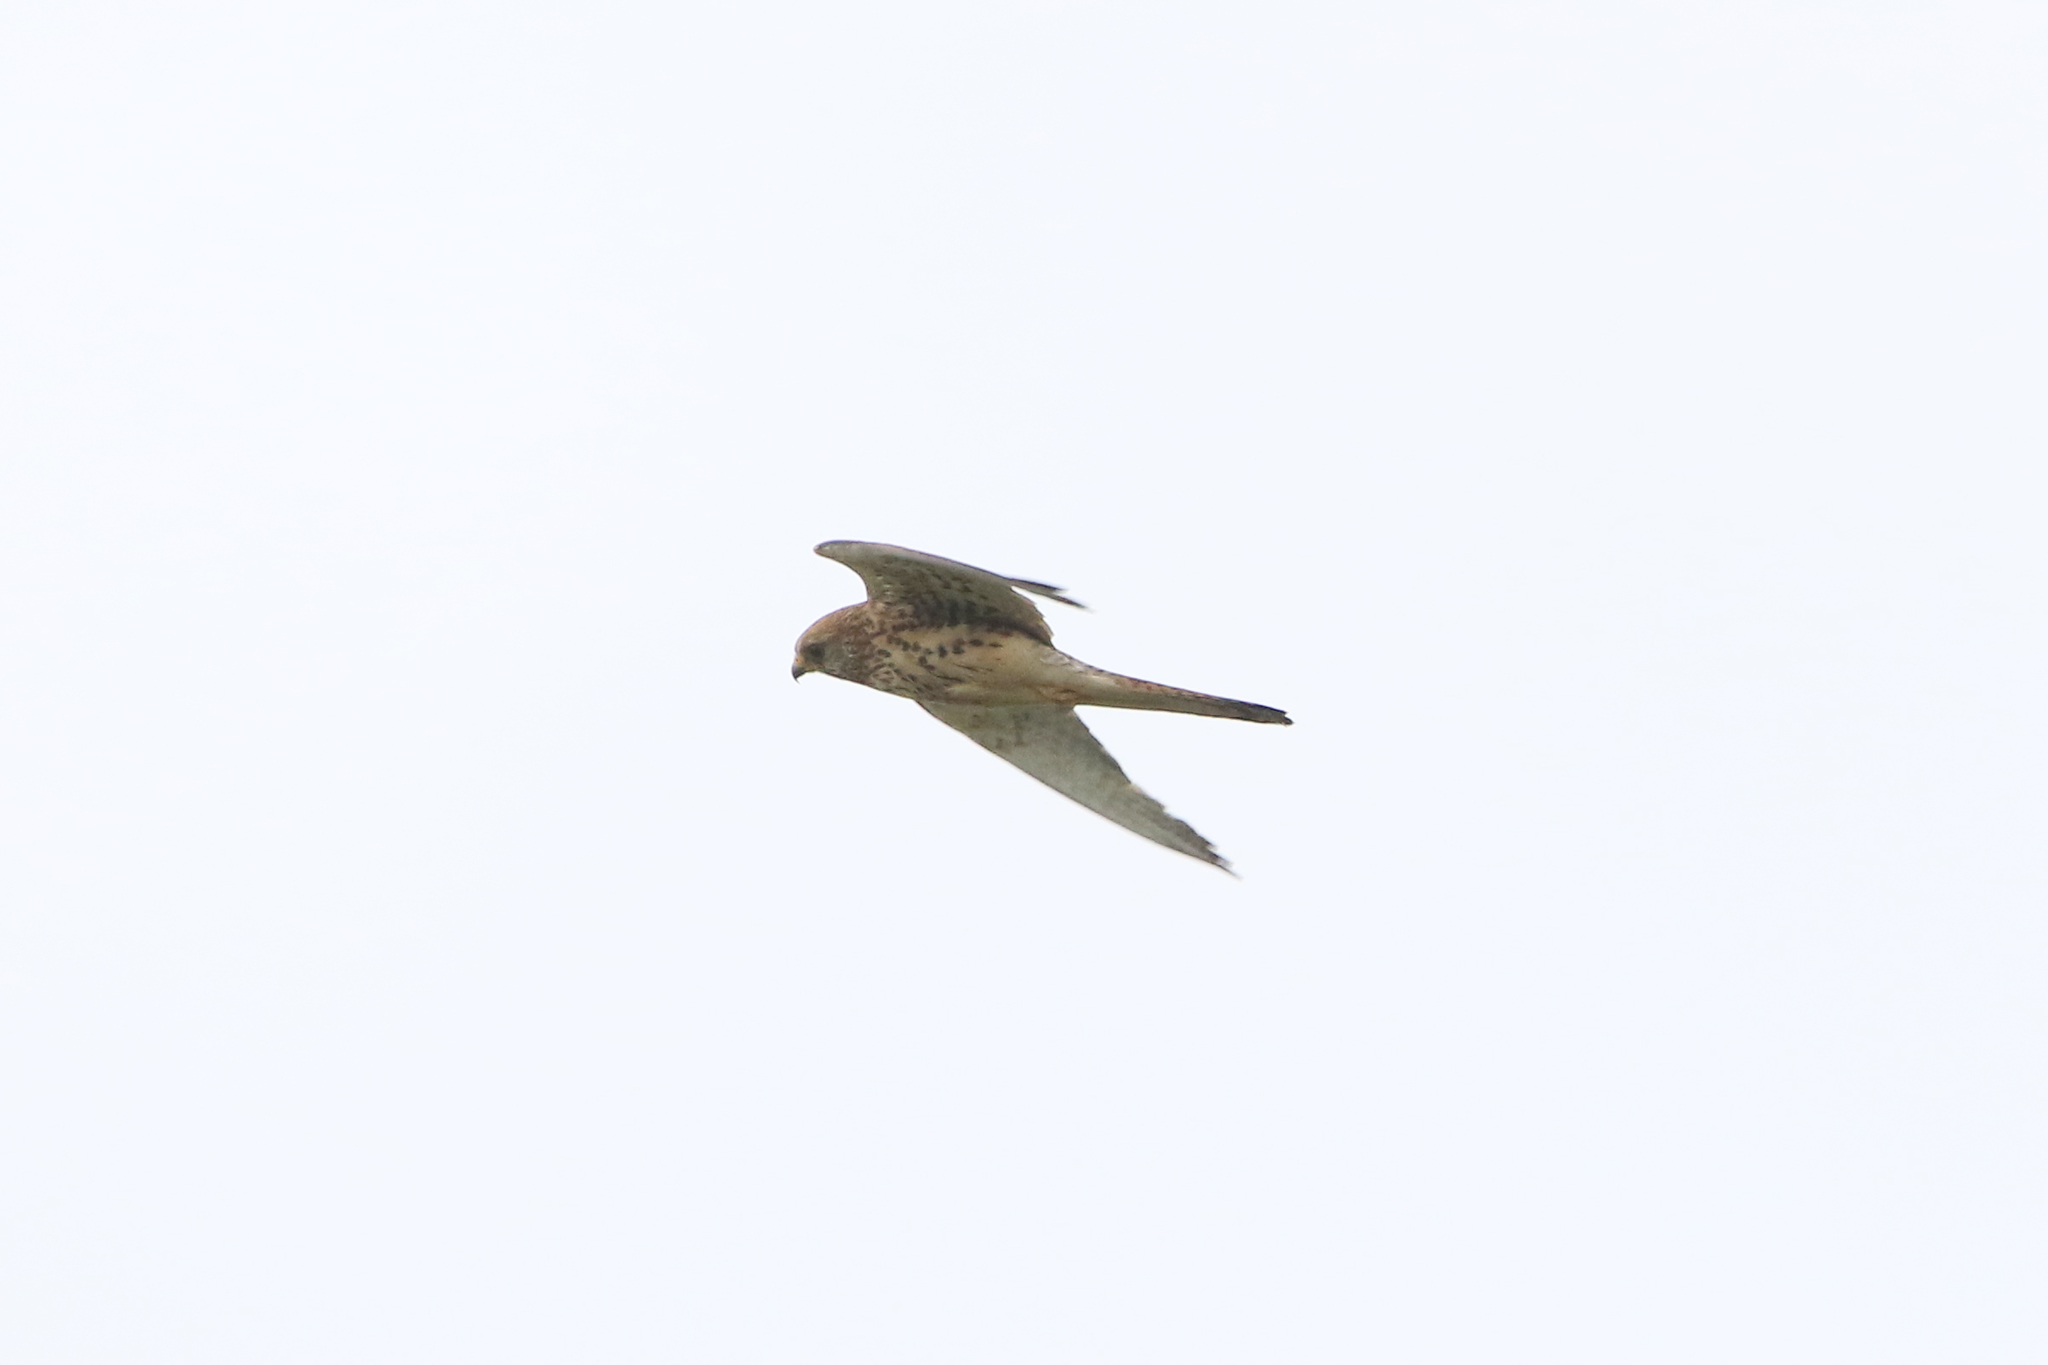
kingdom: Animalia
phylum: Chordata
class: Aves
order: Falconiformes
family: Falconidae
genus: Falco
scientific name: Falco tinnunculus
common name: Common kestrel
